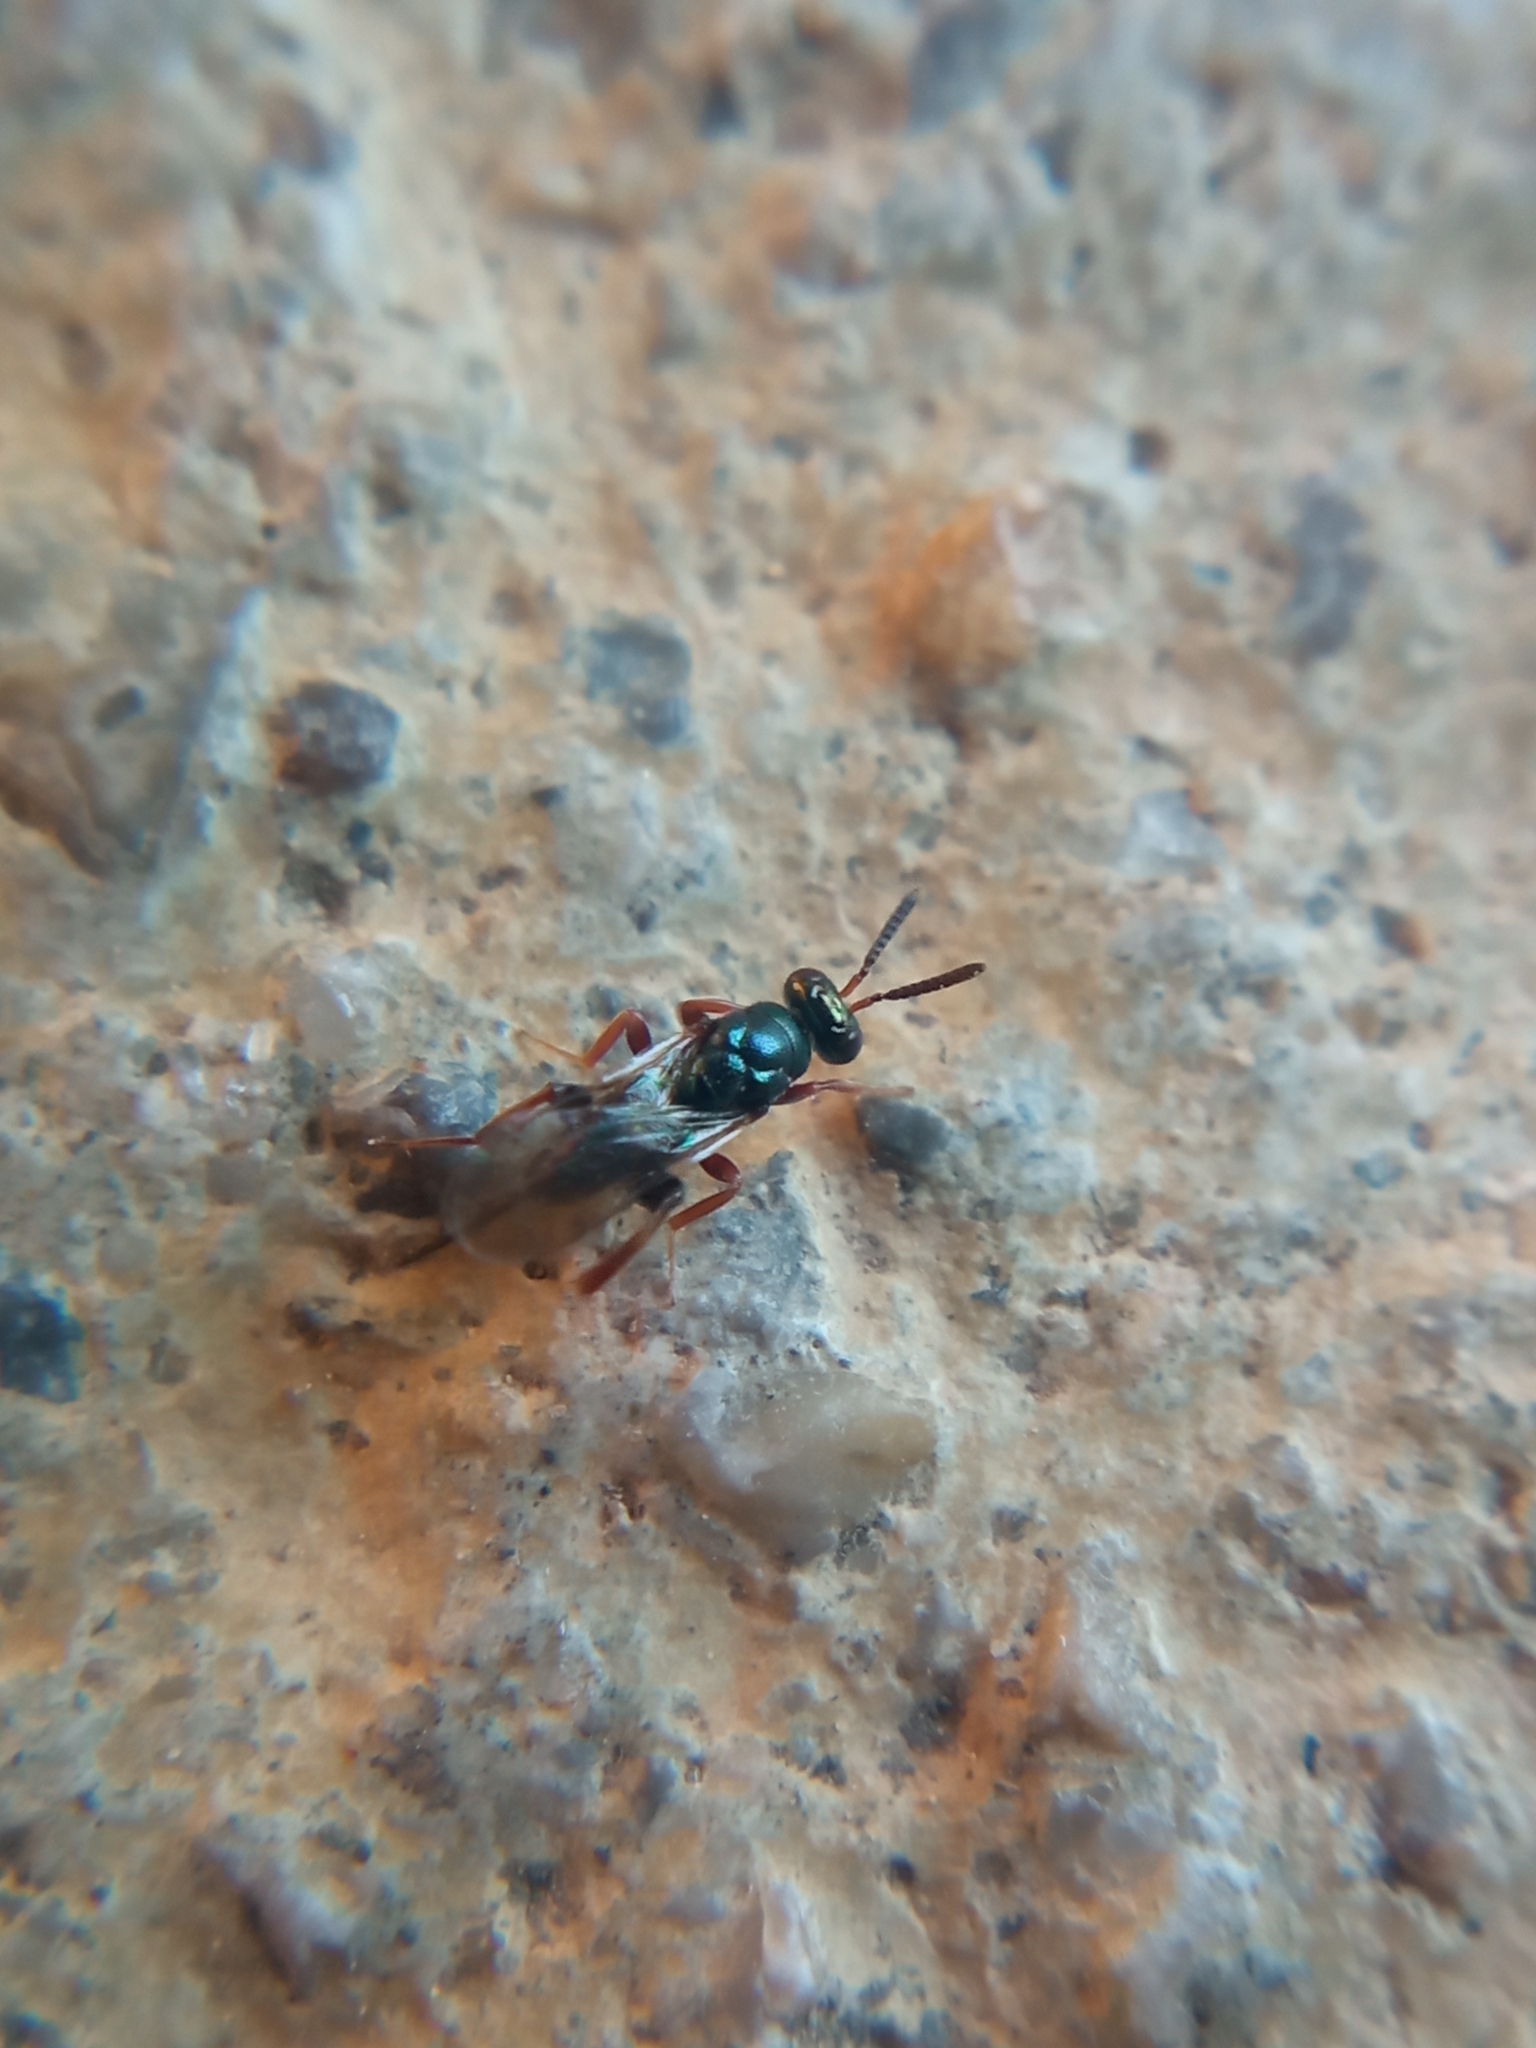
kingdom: Animalia
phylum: Arthropoda
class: Insecta
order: Hymenoptera
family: Torymidae
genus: Torymus
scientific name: Torymus calcaratus
